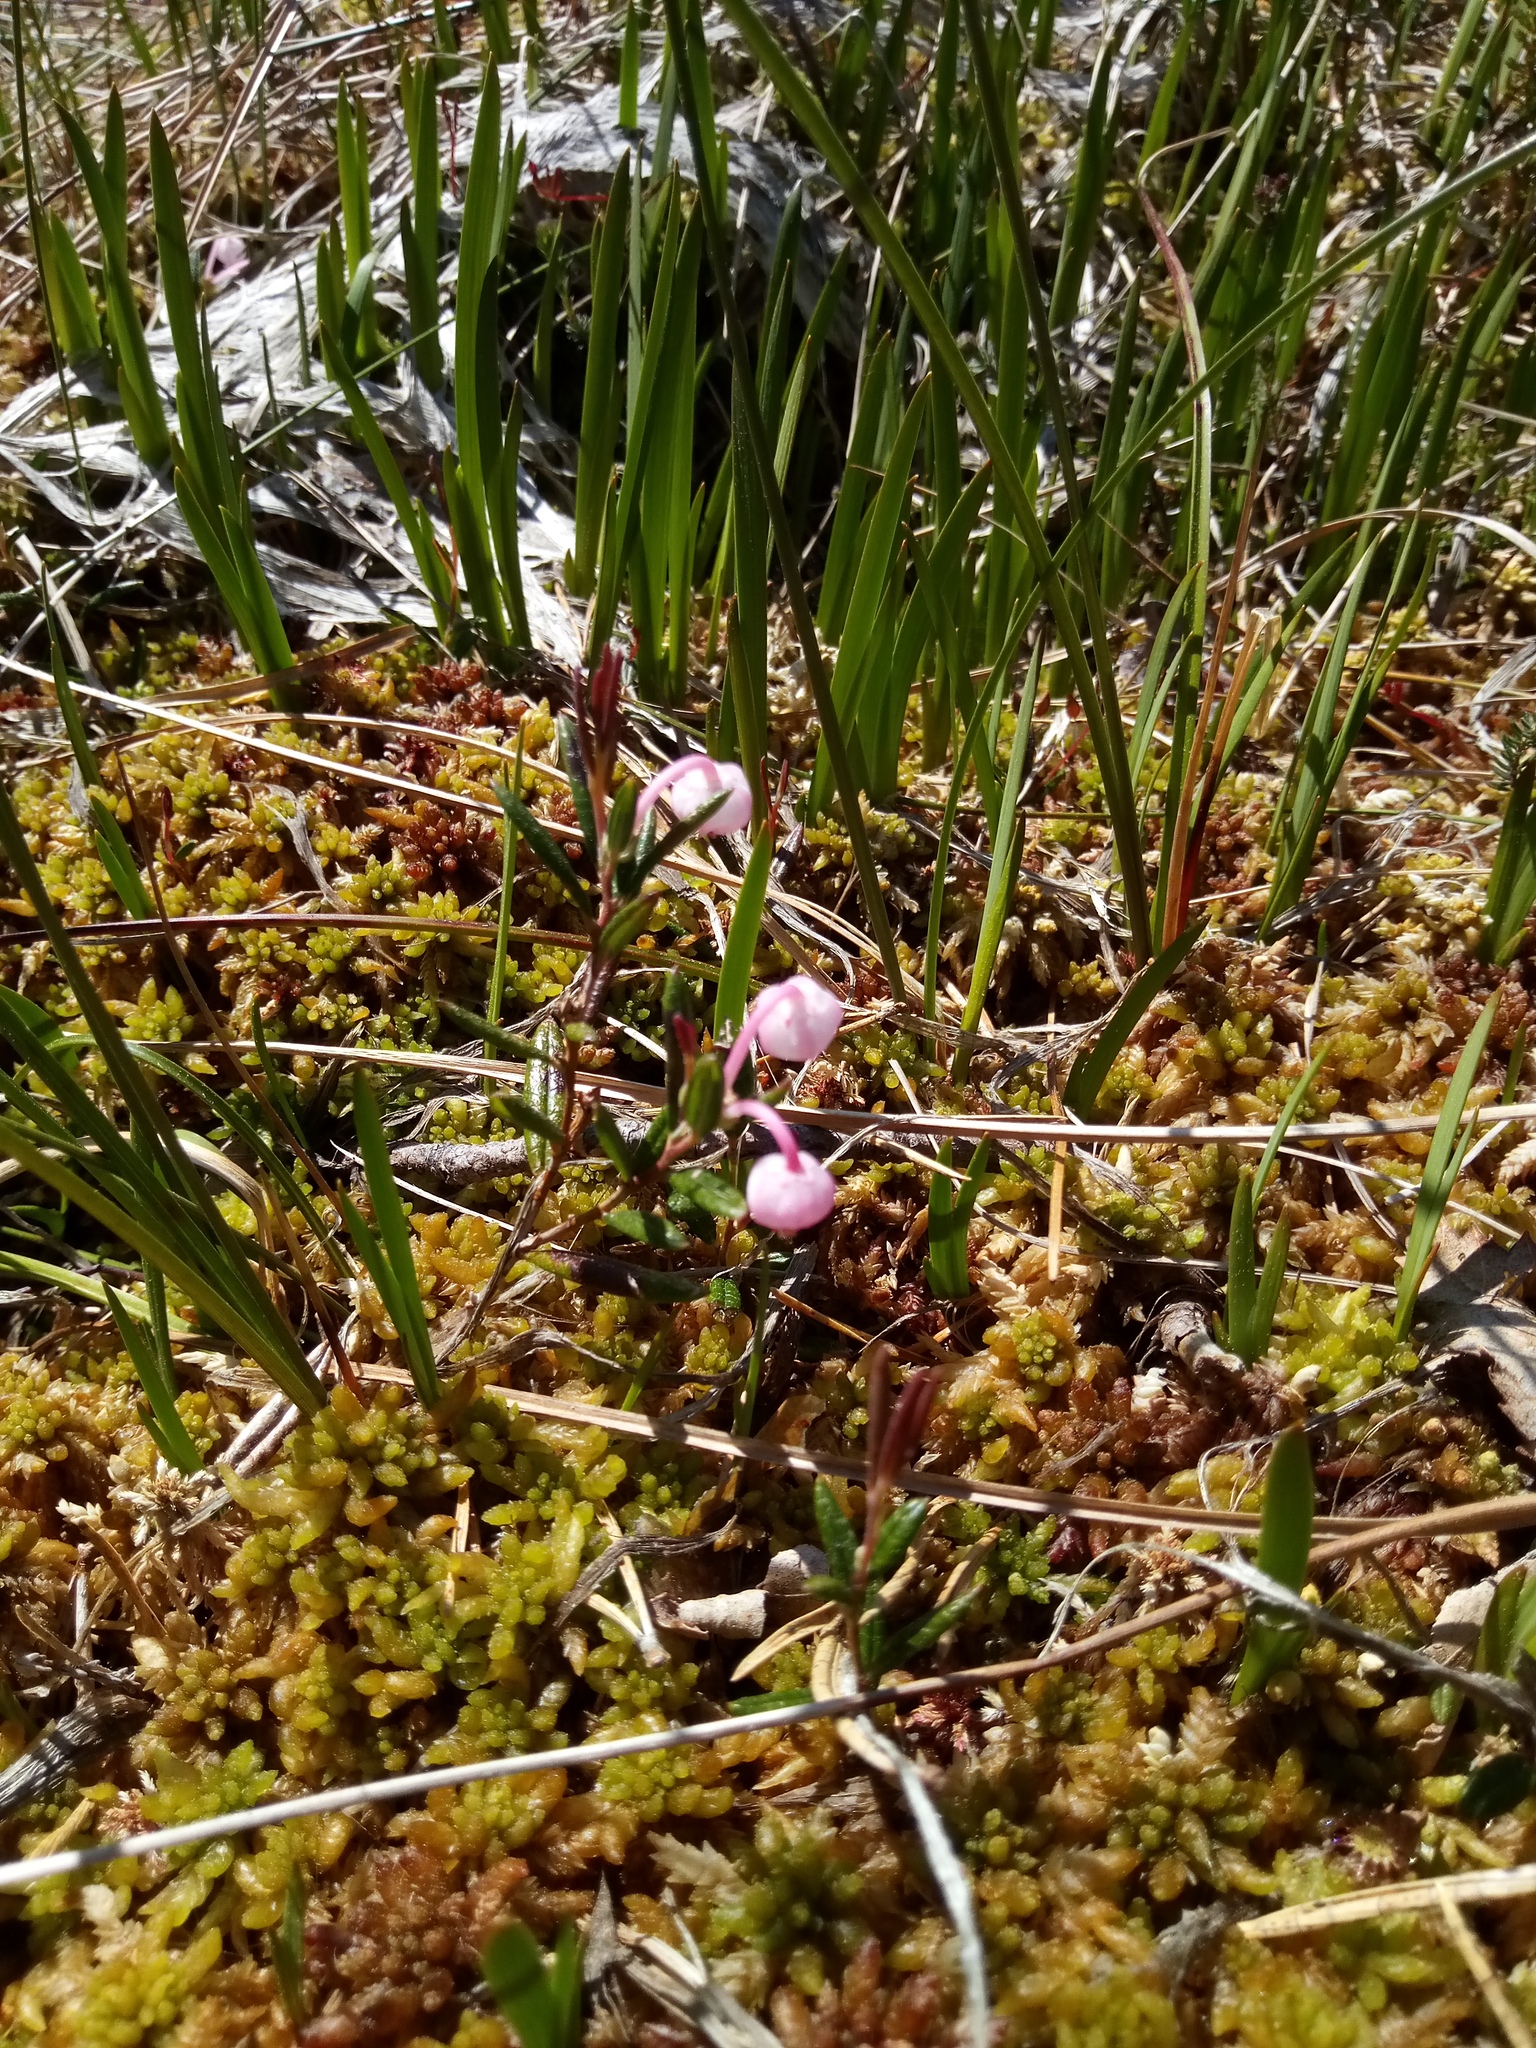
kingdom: Plantae
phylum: Tracheophyta
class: Magnoliopsida
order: Ericales
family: Ericaceae
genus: Andromeda
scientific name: Andromeda polifolia
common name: Bog-rosemary
